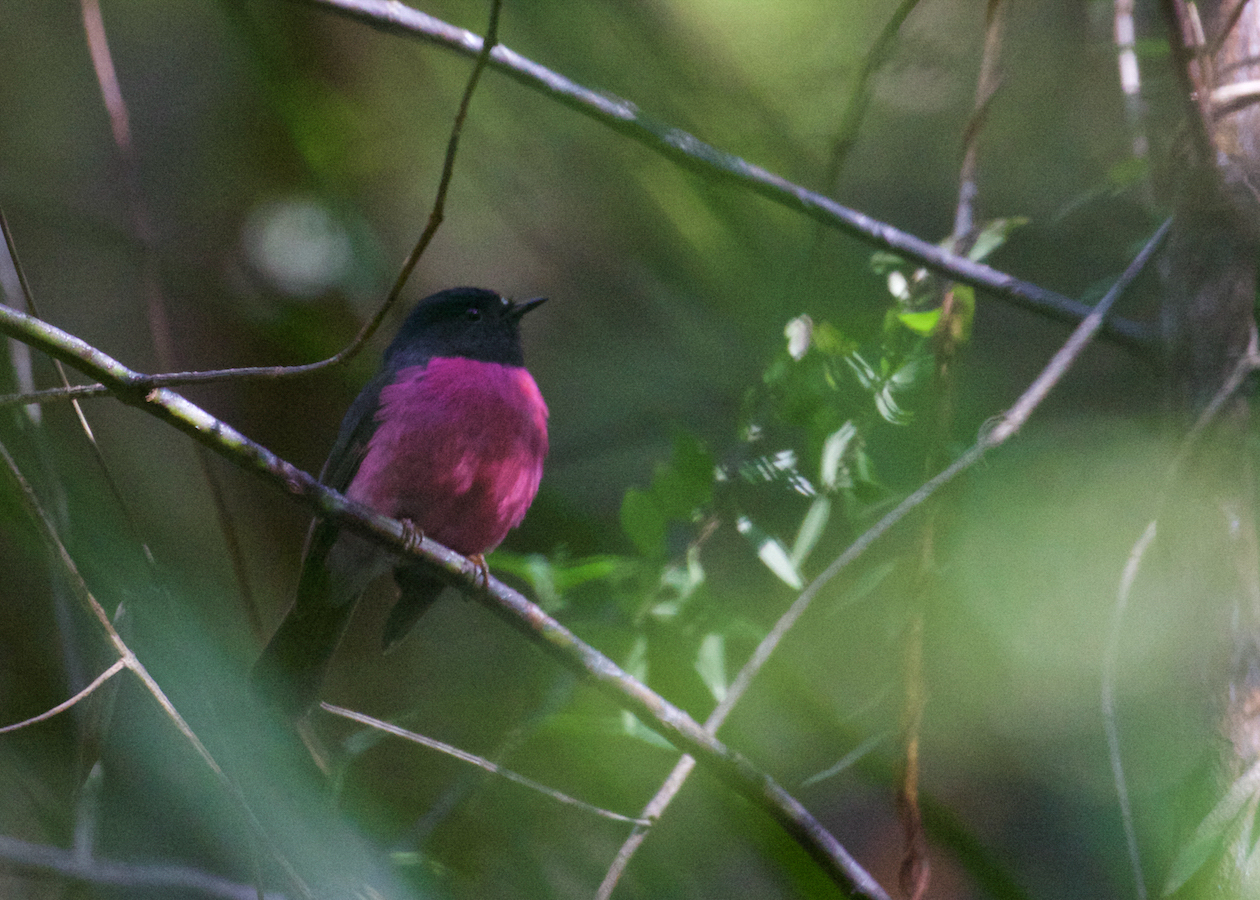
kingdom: Animalia
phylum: Chordata
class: Aves
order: Passeriformes
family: Petroicidae
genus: Petroica
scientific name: Petroica rodinogaster
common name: Pink robin
